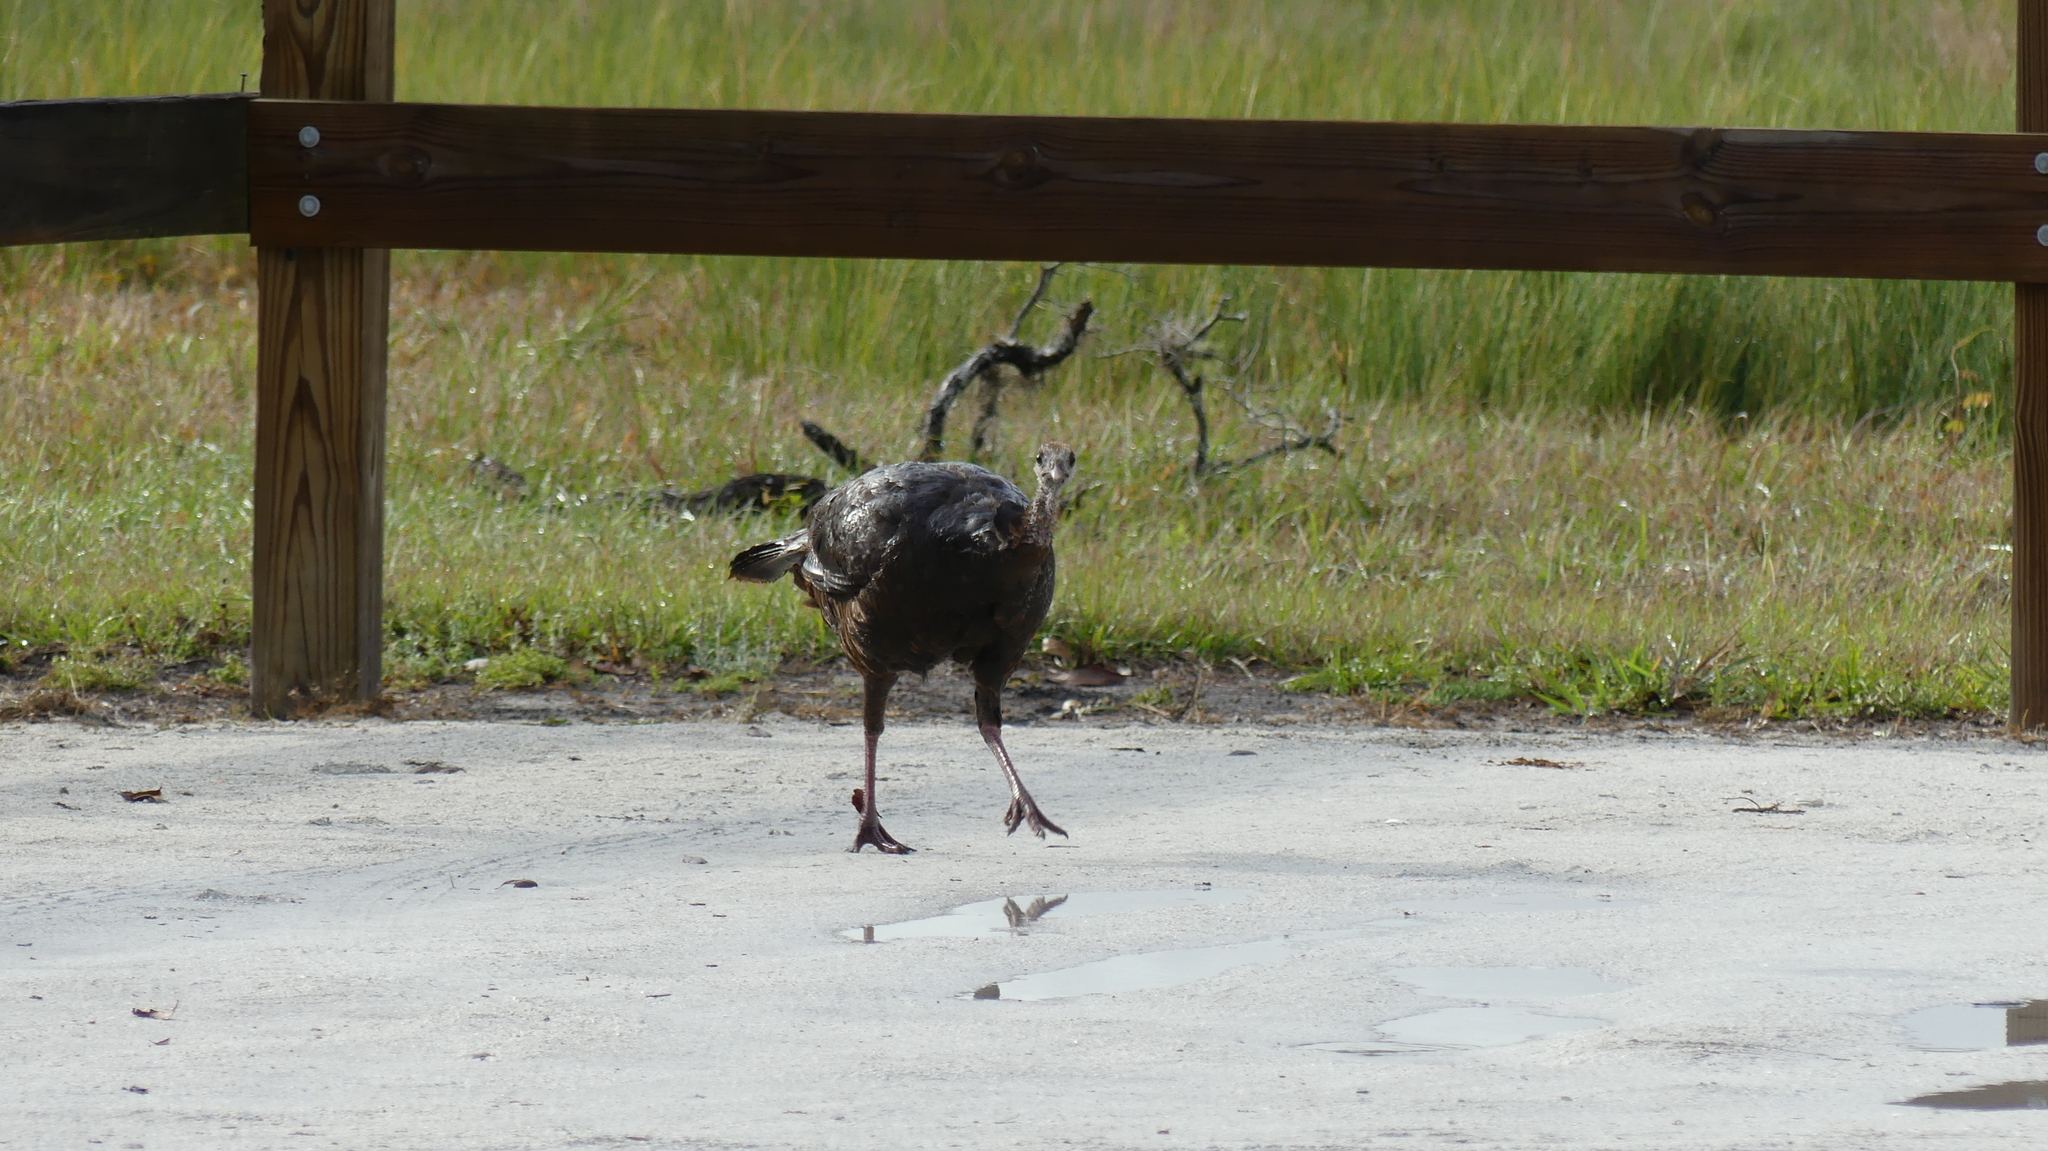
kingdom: Animalia
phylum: Chordata
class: Aves
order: Galliformes
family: Phasianidae
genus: Meleagris
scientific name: Meleagris gallopavo
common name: Wild turkey
